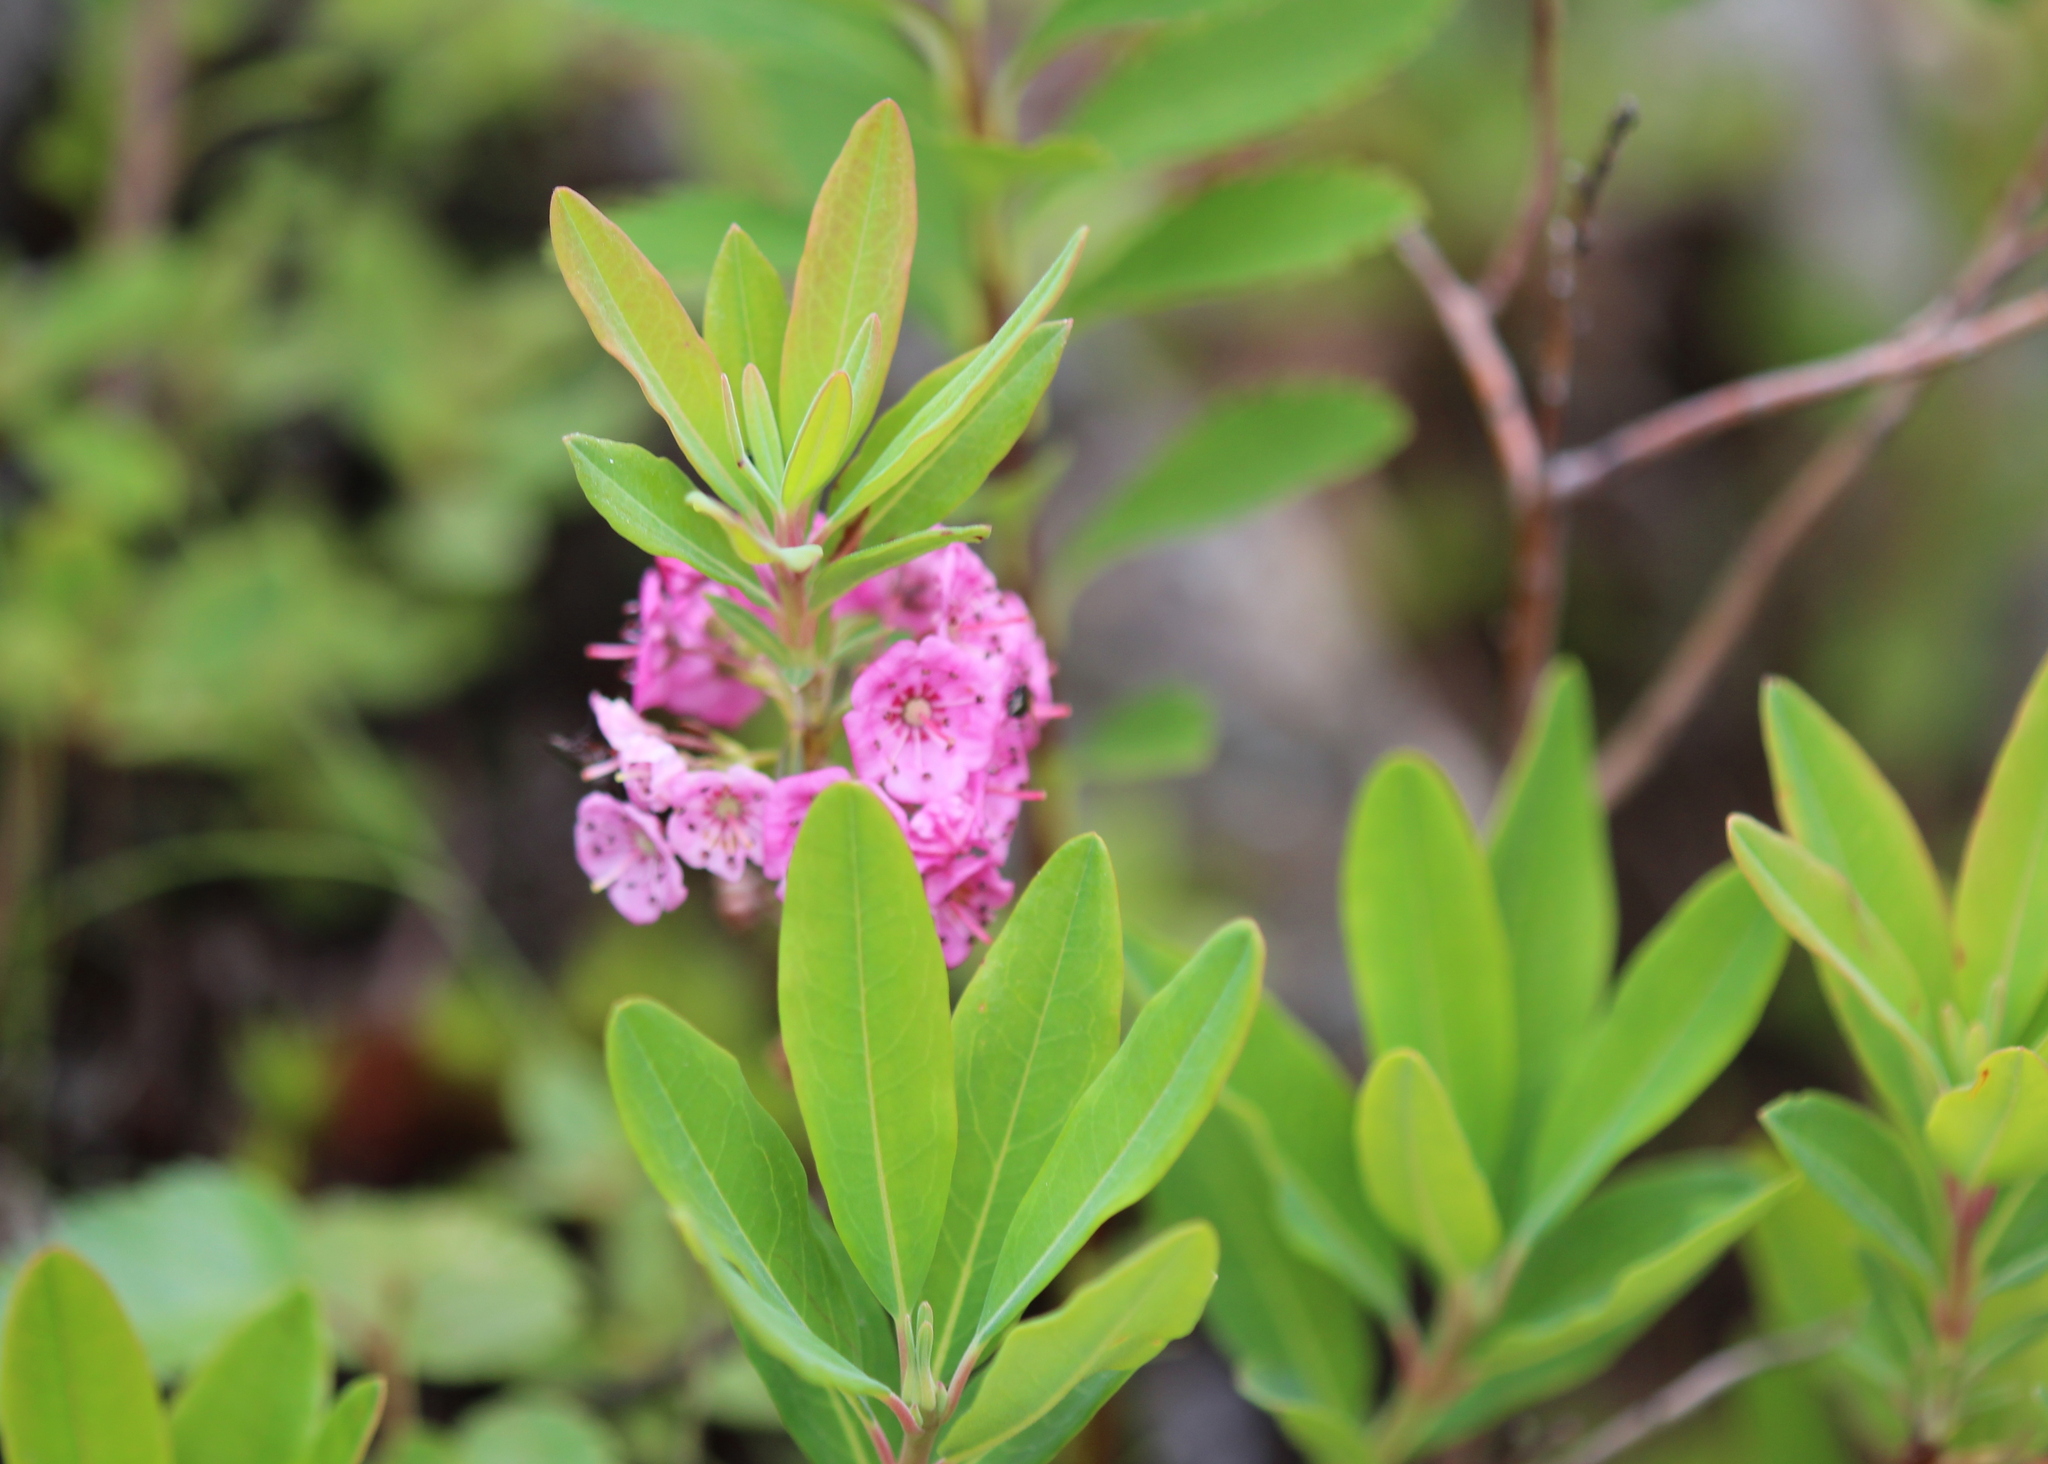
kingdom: Plantae
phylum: Tracheophyta
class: Magnoliopsida
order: Ericales
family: Ericaceae
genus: Kalmia
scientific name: Kalmia angustifolia
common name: Sheep-laurel
